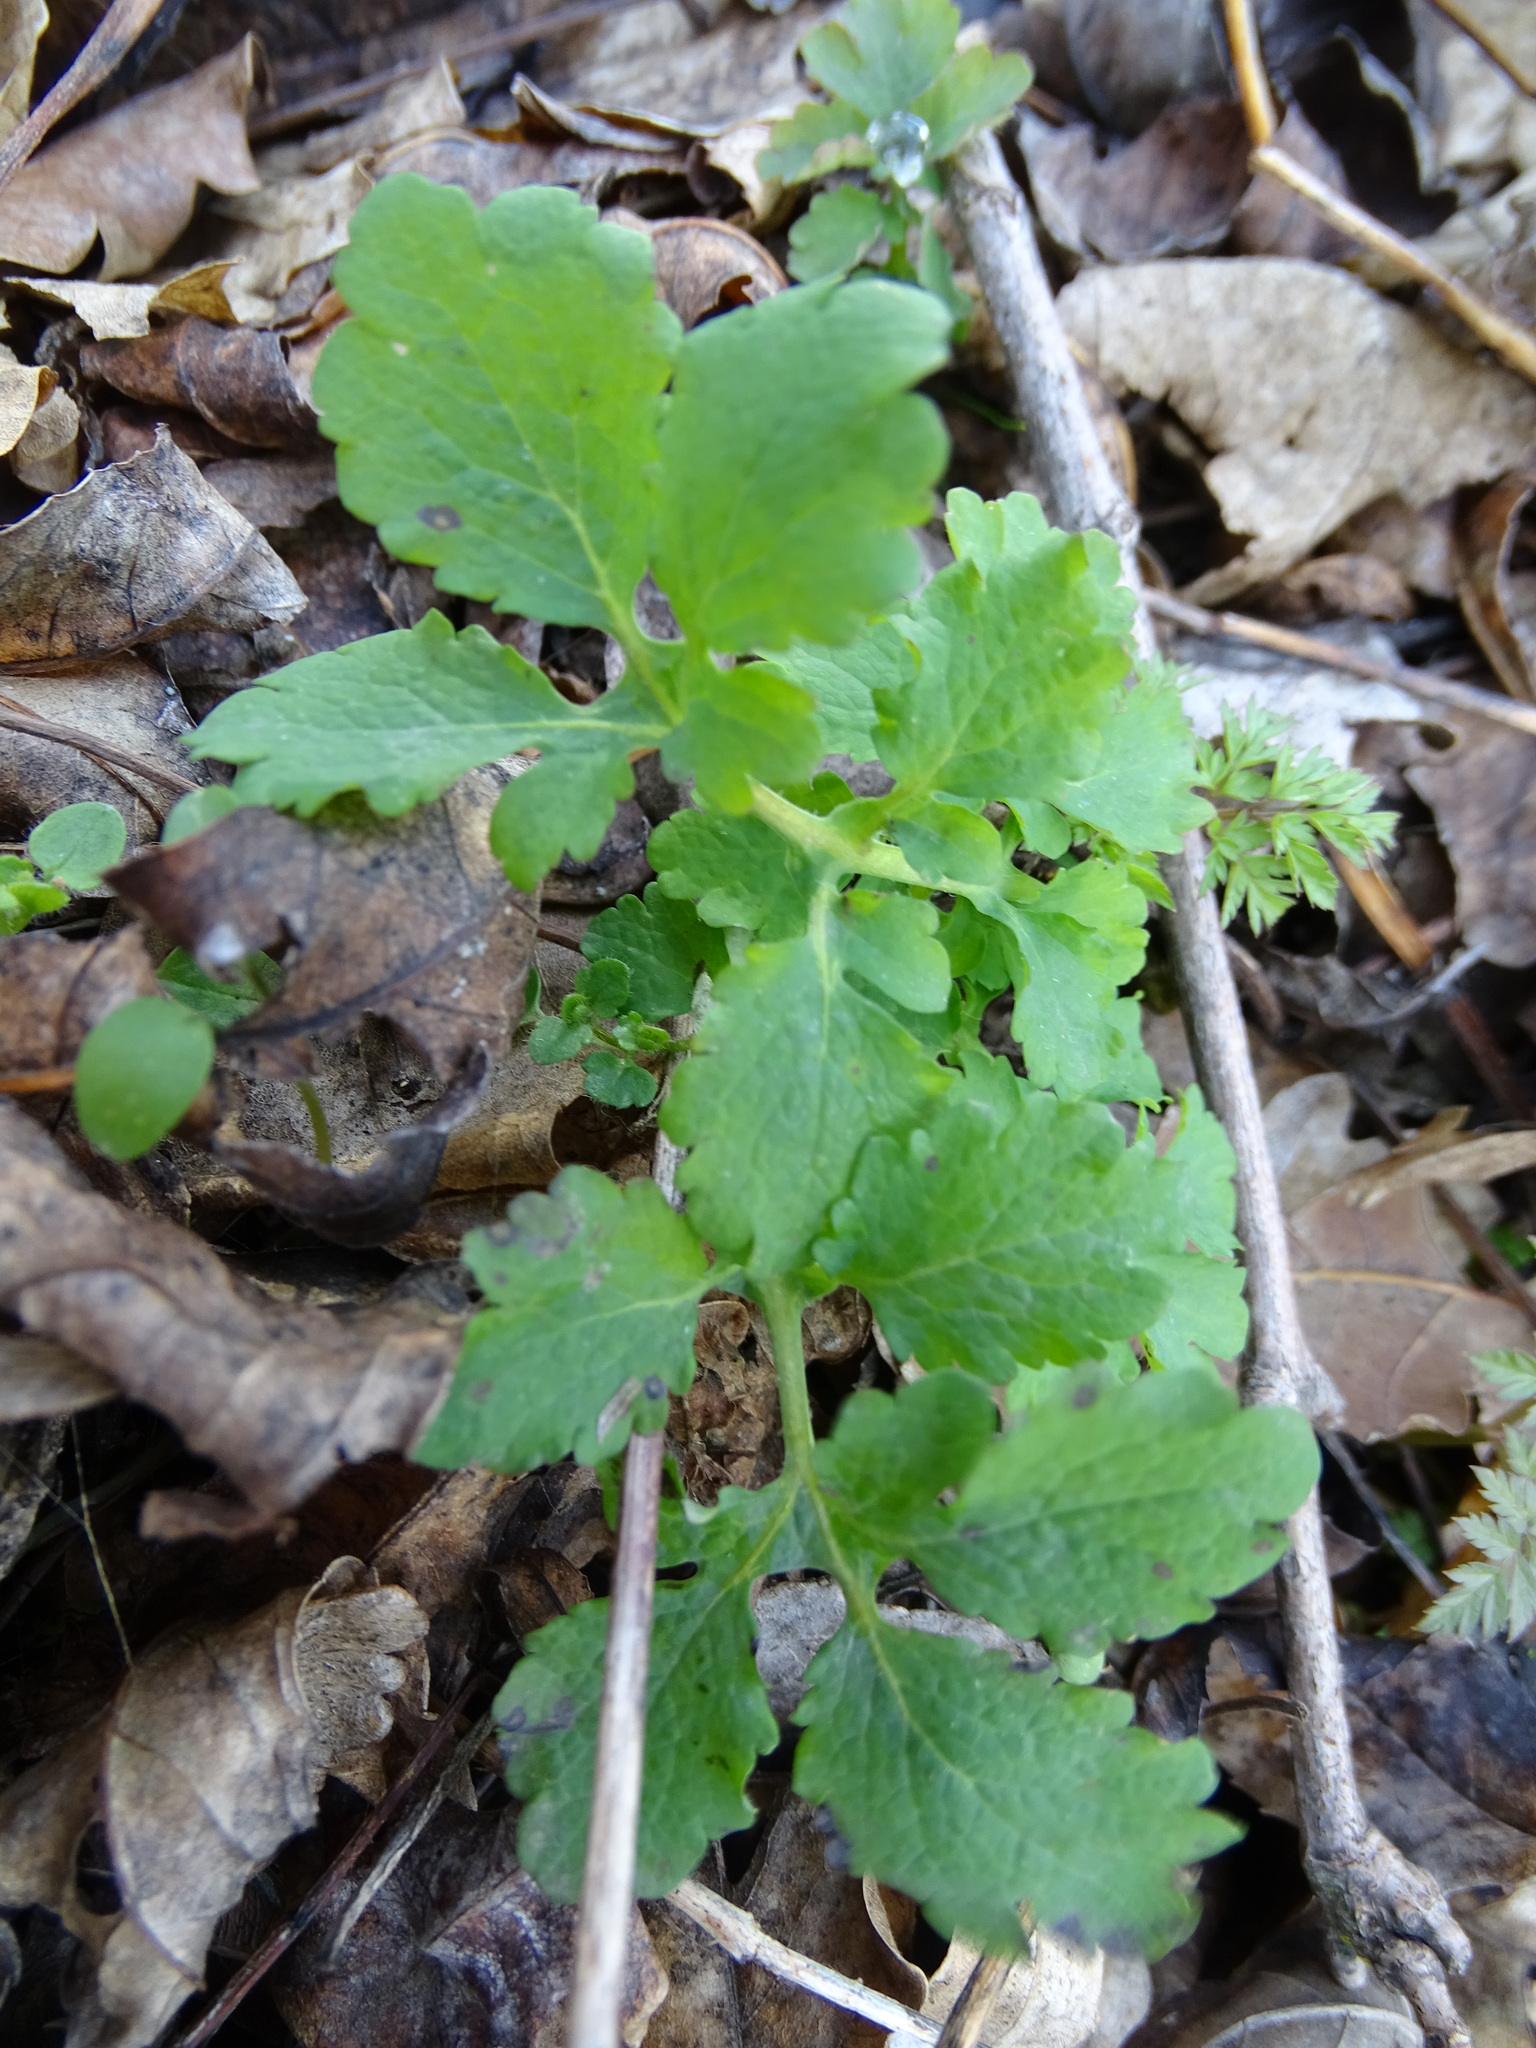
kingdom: Plantae
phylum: Tracheophyta
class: Magnoliopsida
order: Ranunculales
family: Papaveraceae
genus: Chelidonium
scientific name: Chelidonium majus
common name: Greater celandine
